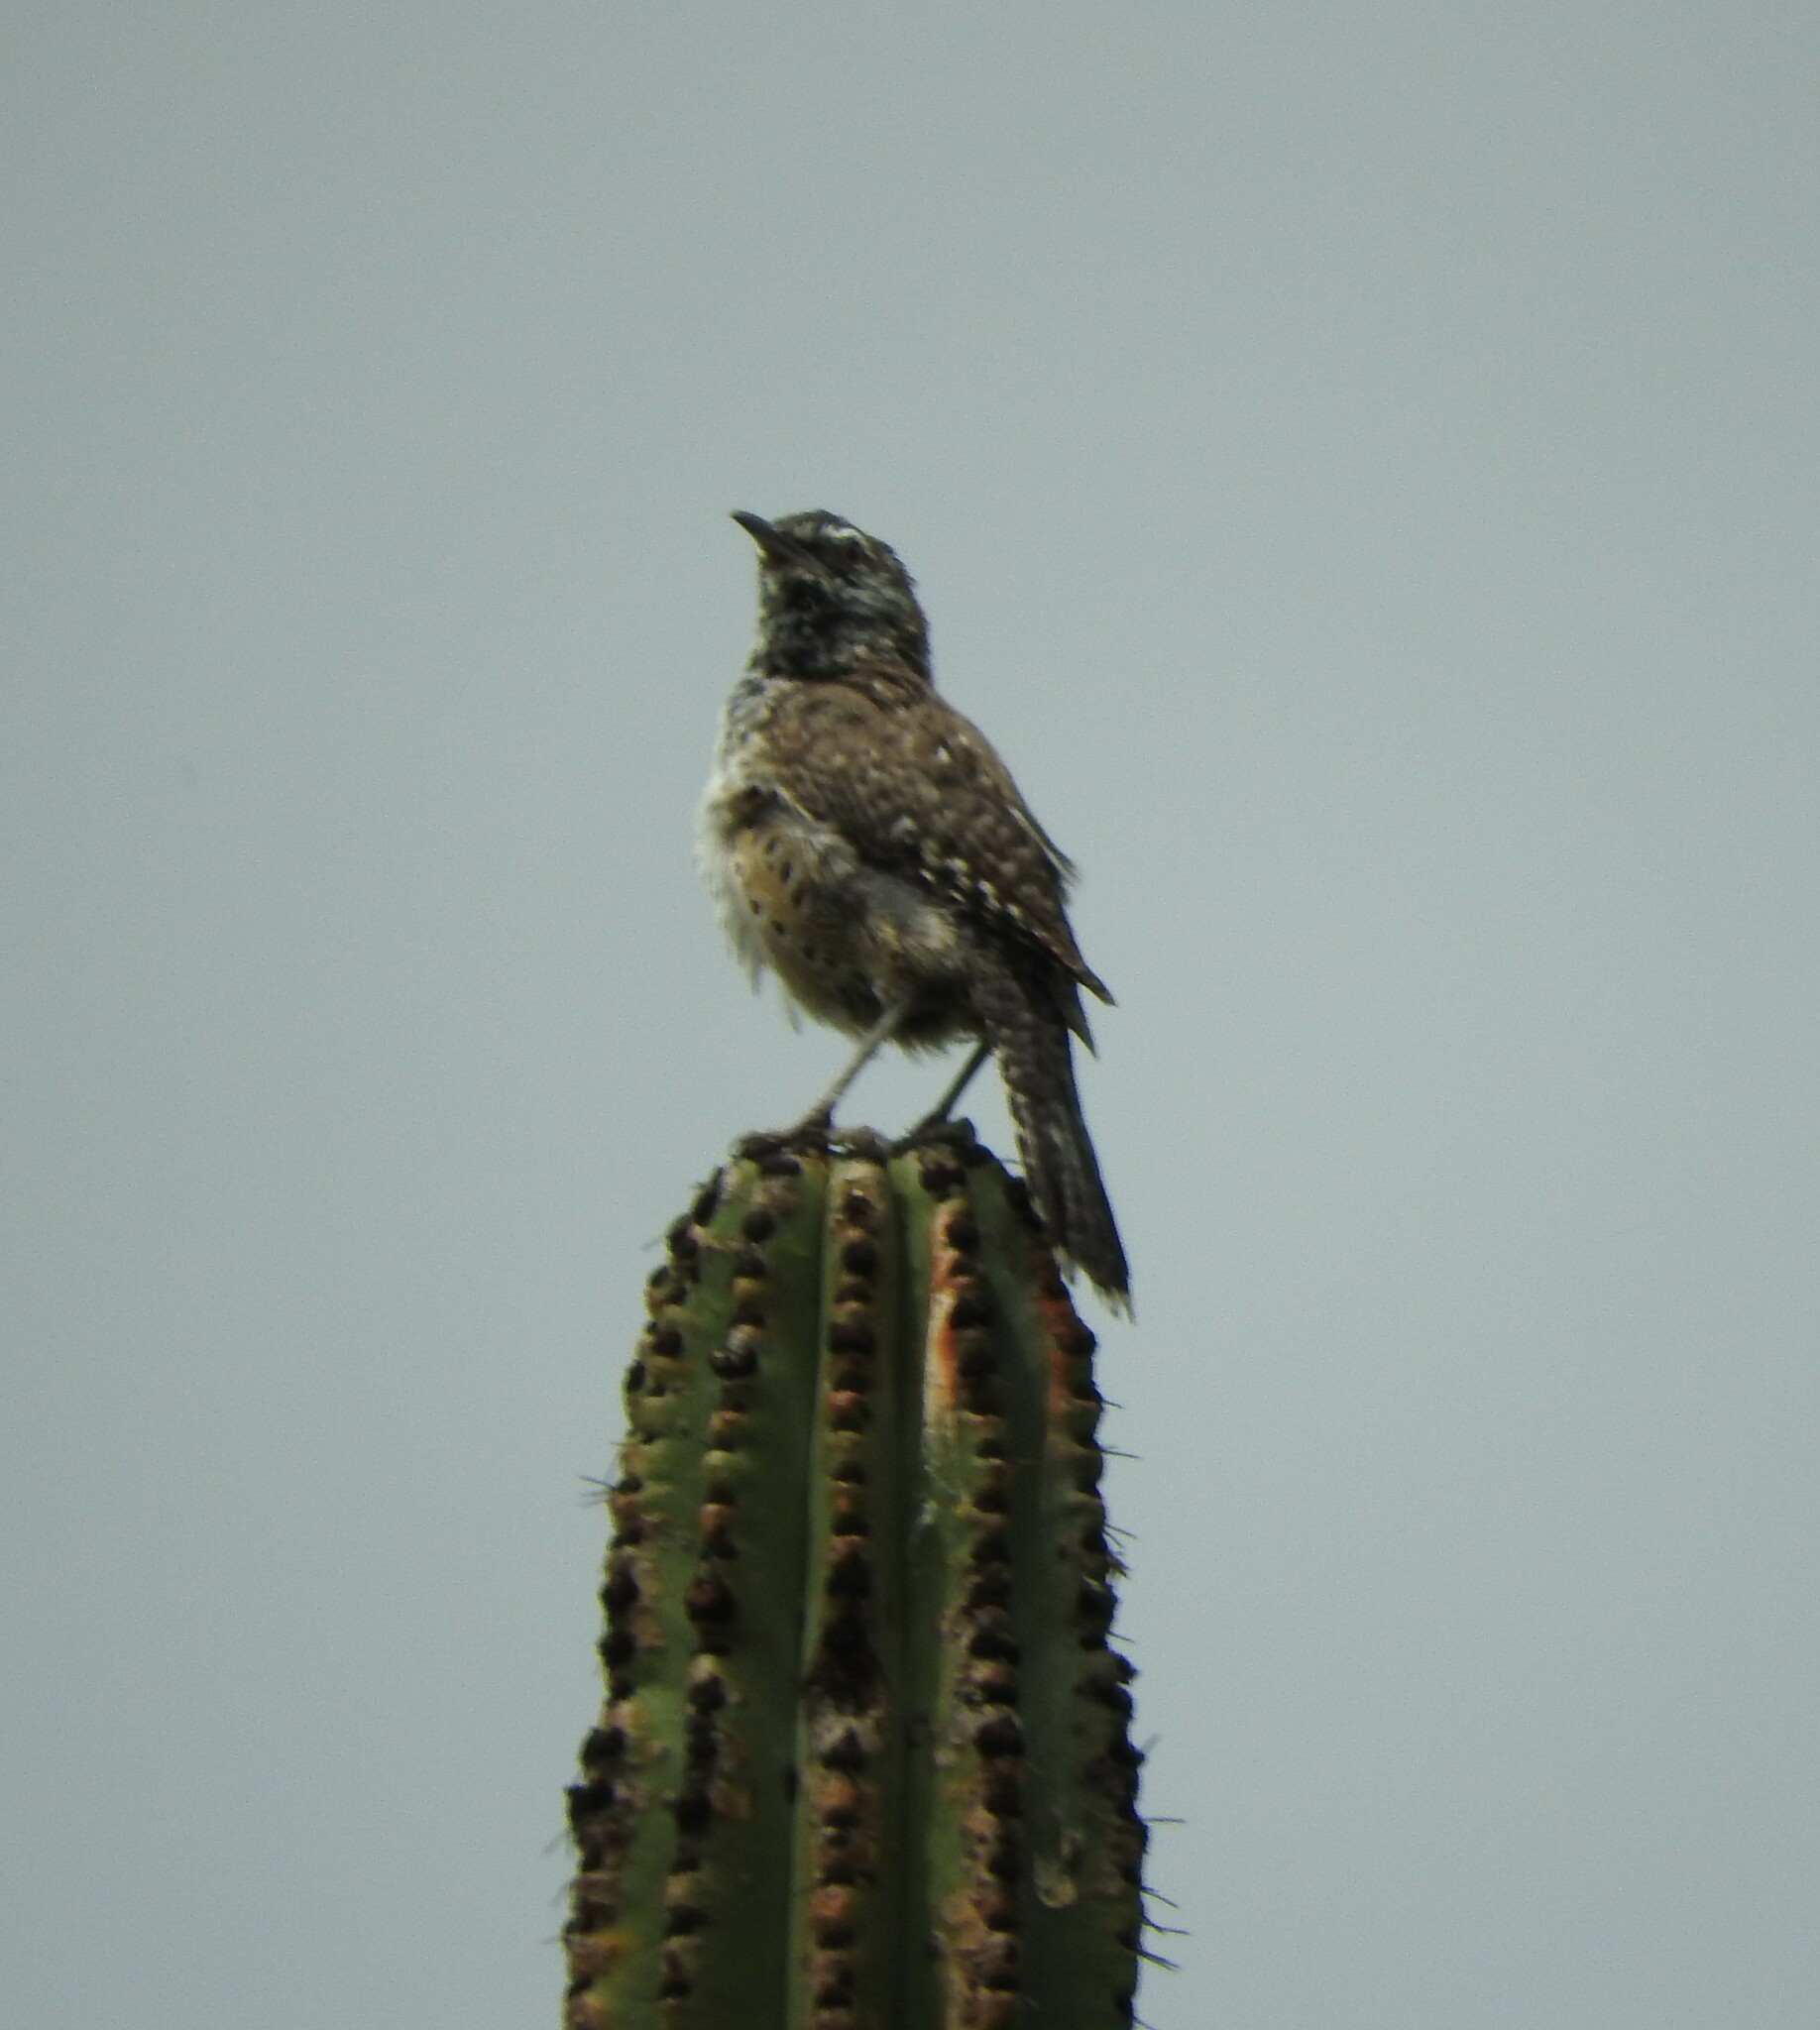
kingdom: Animalia
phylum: Chordata
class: Aves
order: Passeriformes
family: Troglodytidae
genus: Campylorhynchus
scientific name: Campylorhynchus brunneicapillus
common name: Cactus wren
